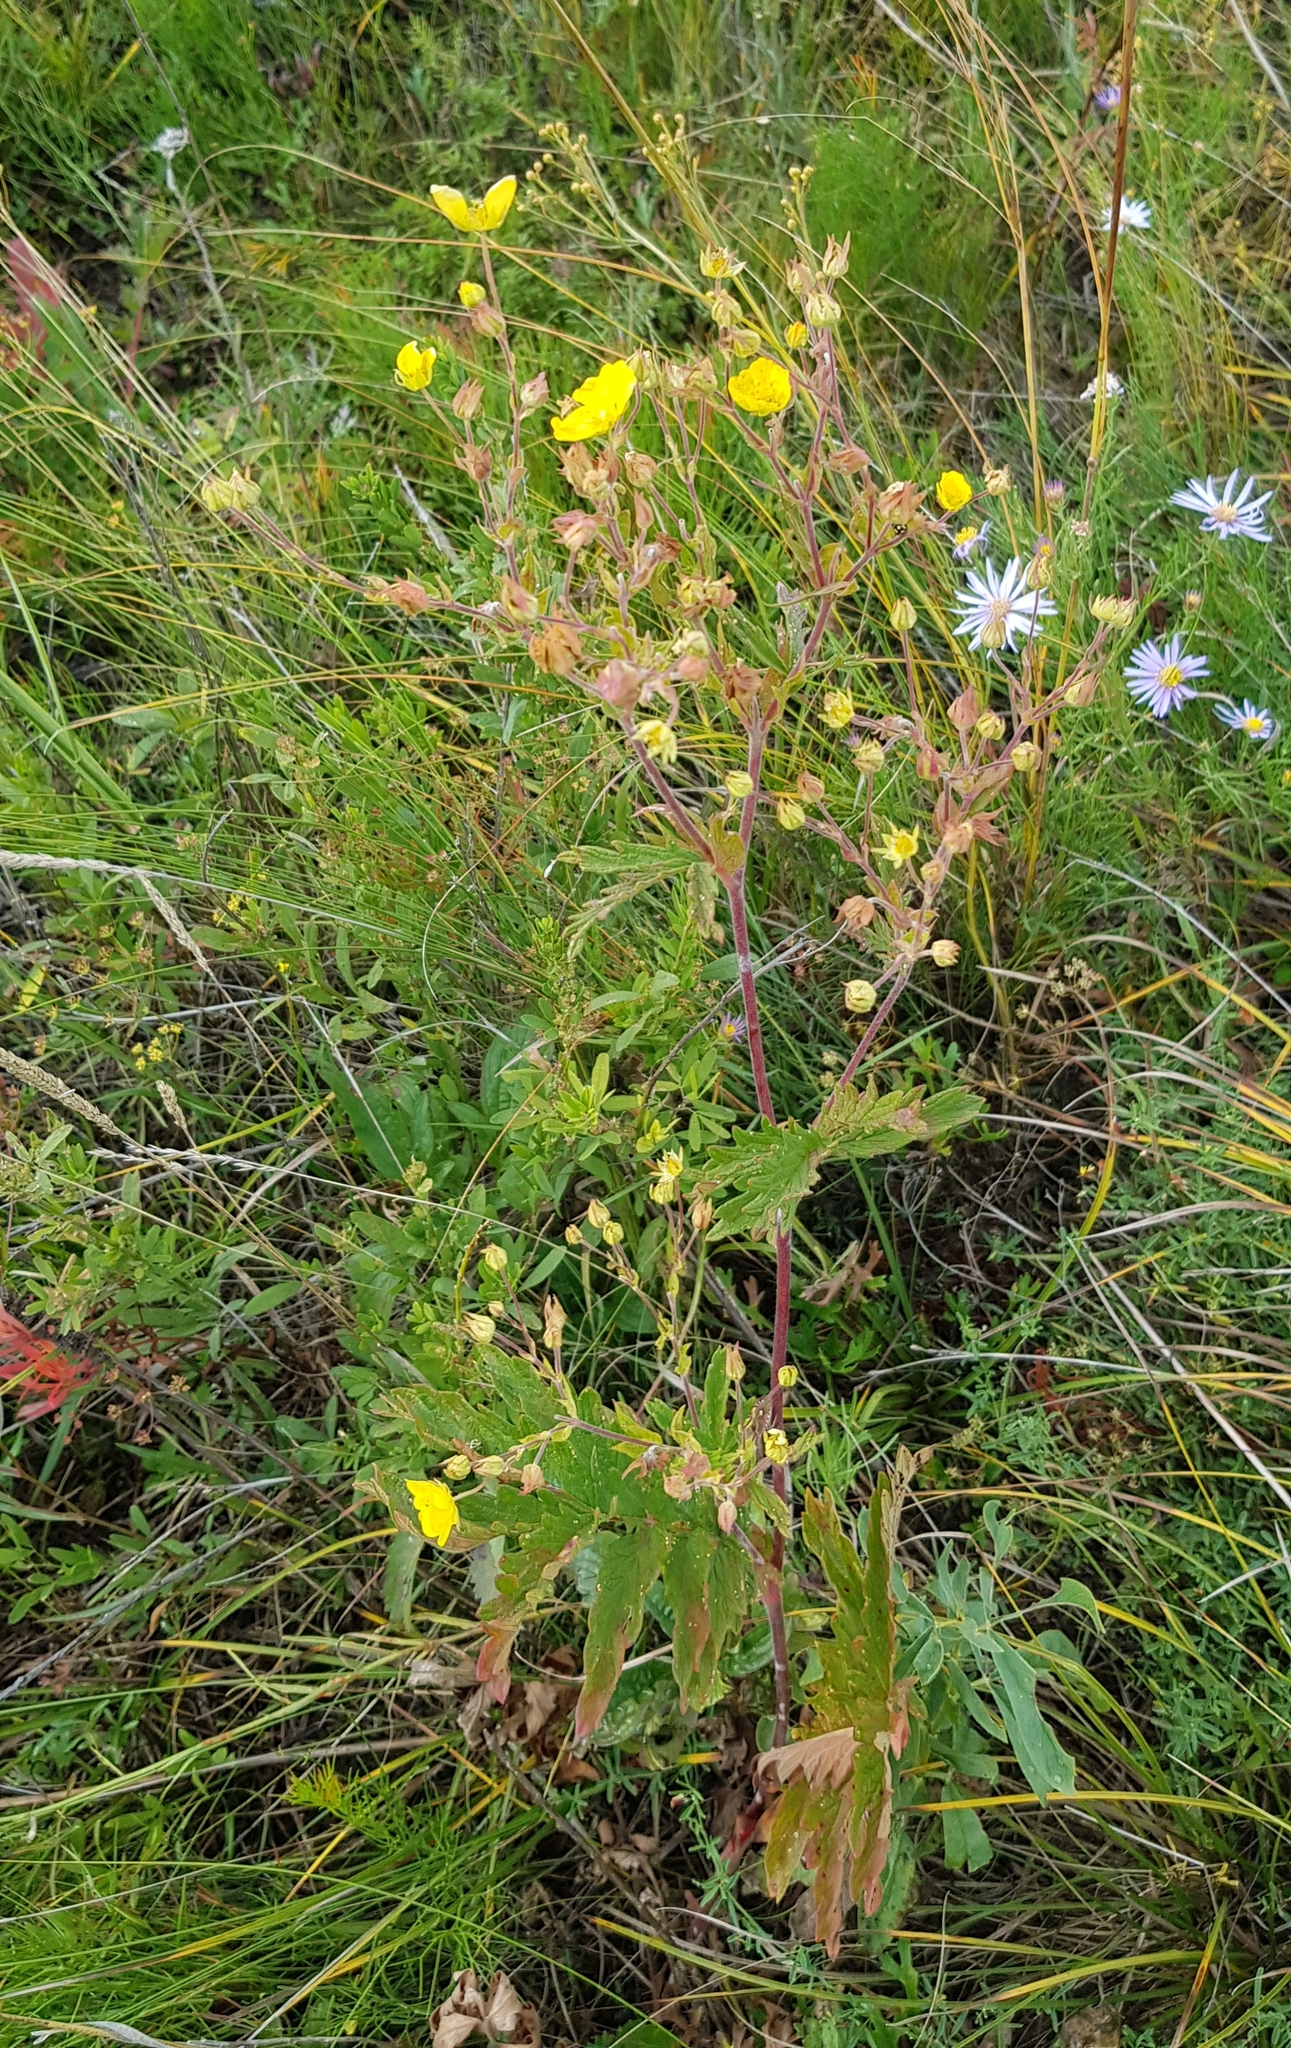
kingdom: Plantae
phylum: Tracheophyta
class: Magnoliopsida
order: Rosales
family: Rosaceae
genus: Potentilla
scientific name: Potentilla tanacetifolia
